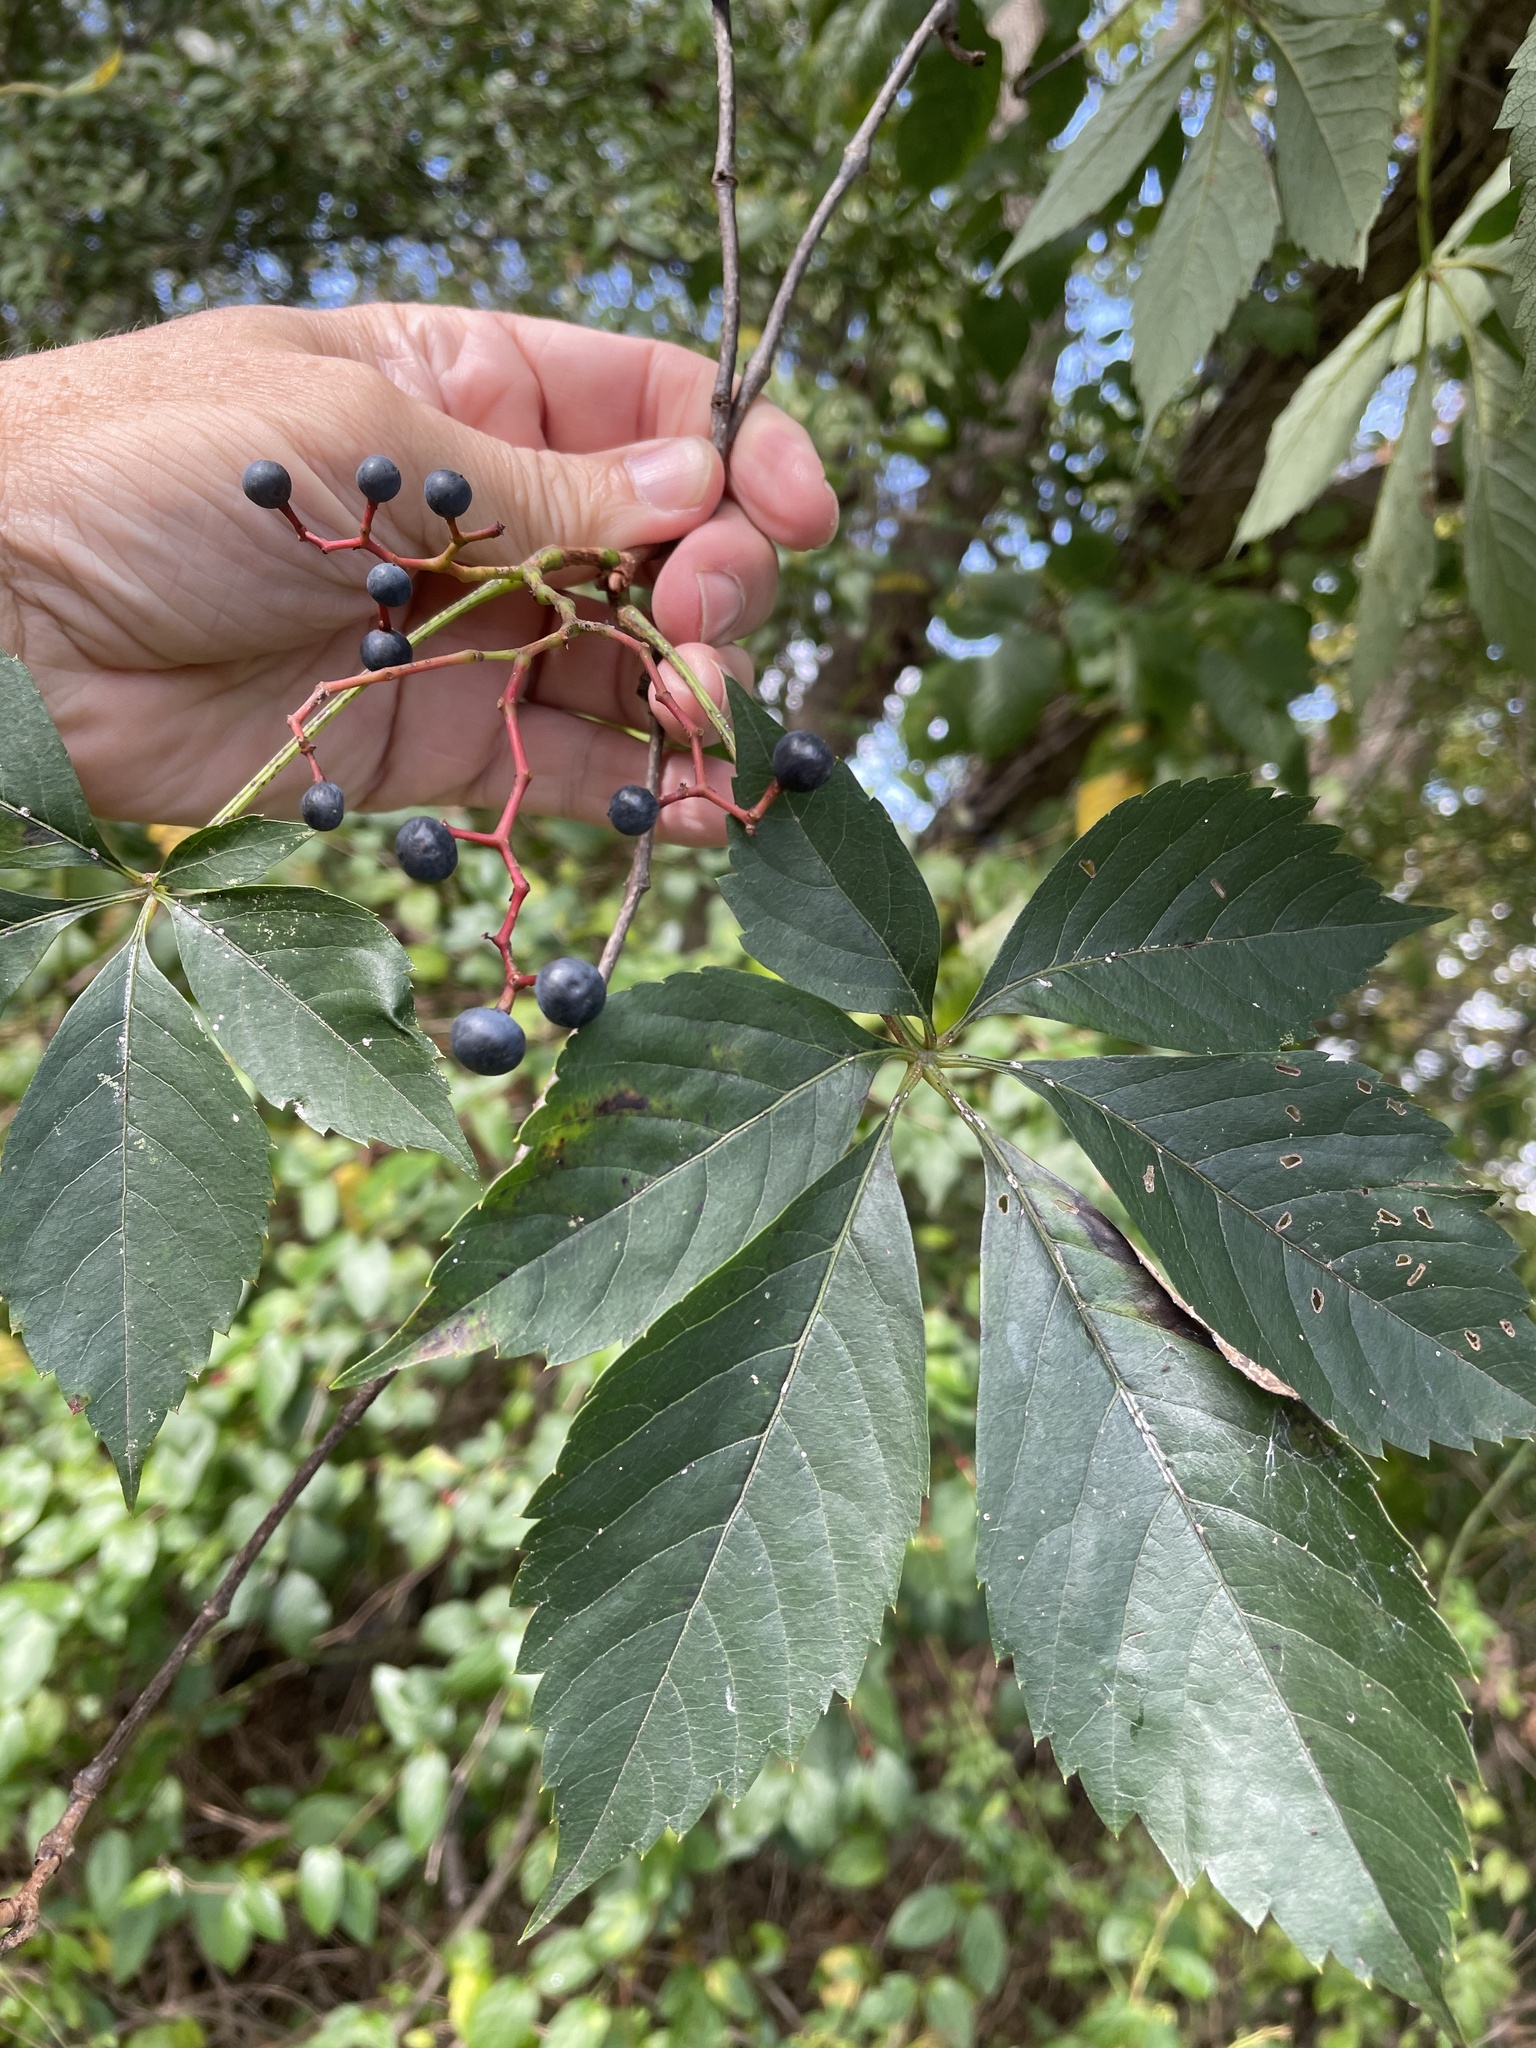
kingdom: Plantae
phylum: Tracheophyta
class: Magnoliopsida
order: Vitales
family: Vitaceae
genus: Parthenocissus
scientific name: Parthenocissus quinquefolia
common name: Virginia-creeper
